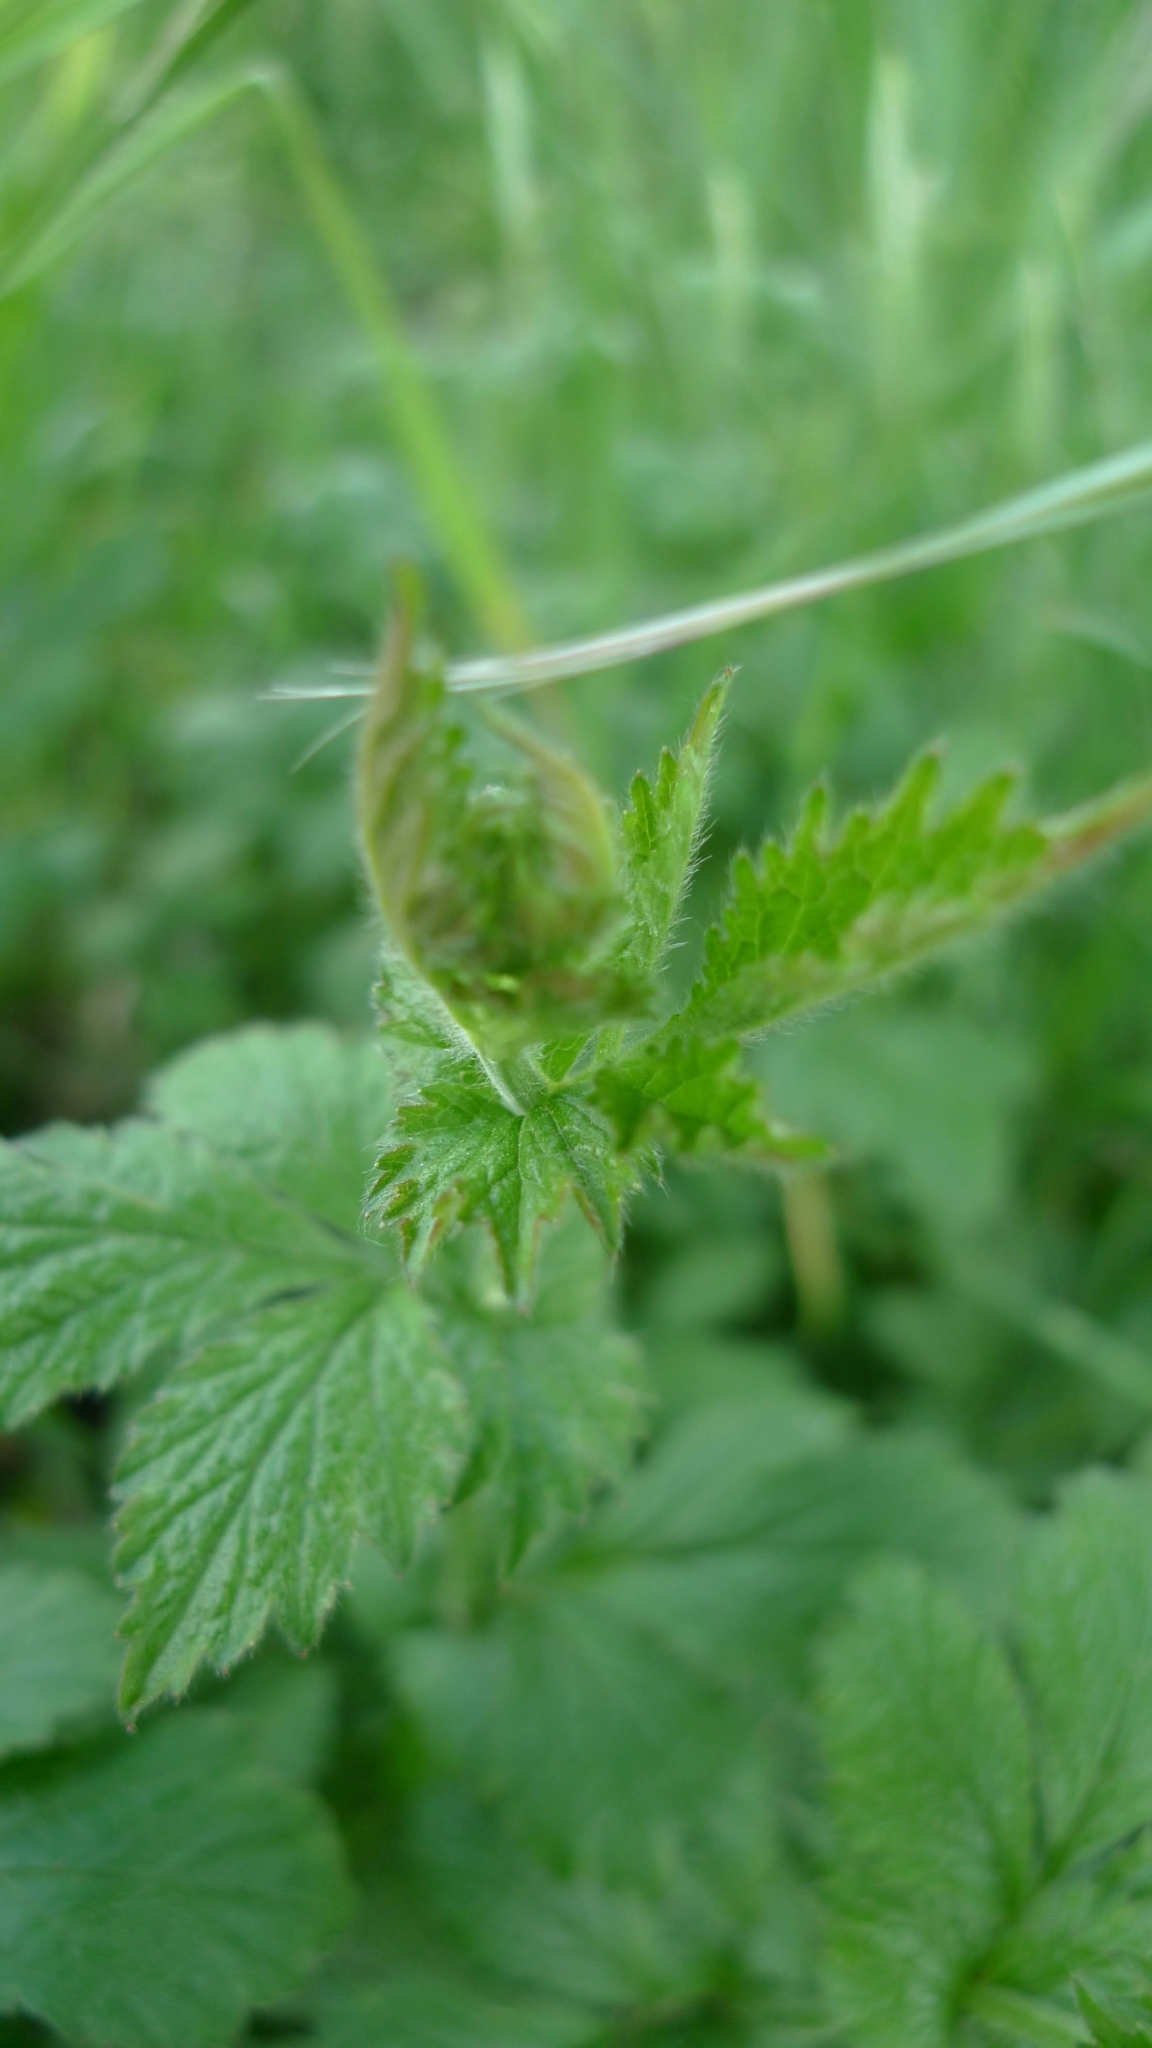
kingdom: Plantae
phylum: Tracheophyta
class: Magnoliopsida
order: Rosales
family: Rosaceae
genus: Geum
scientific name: Geum urbanum
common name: Wood avens
